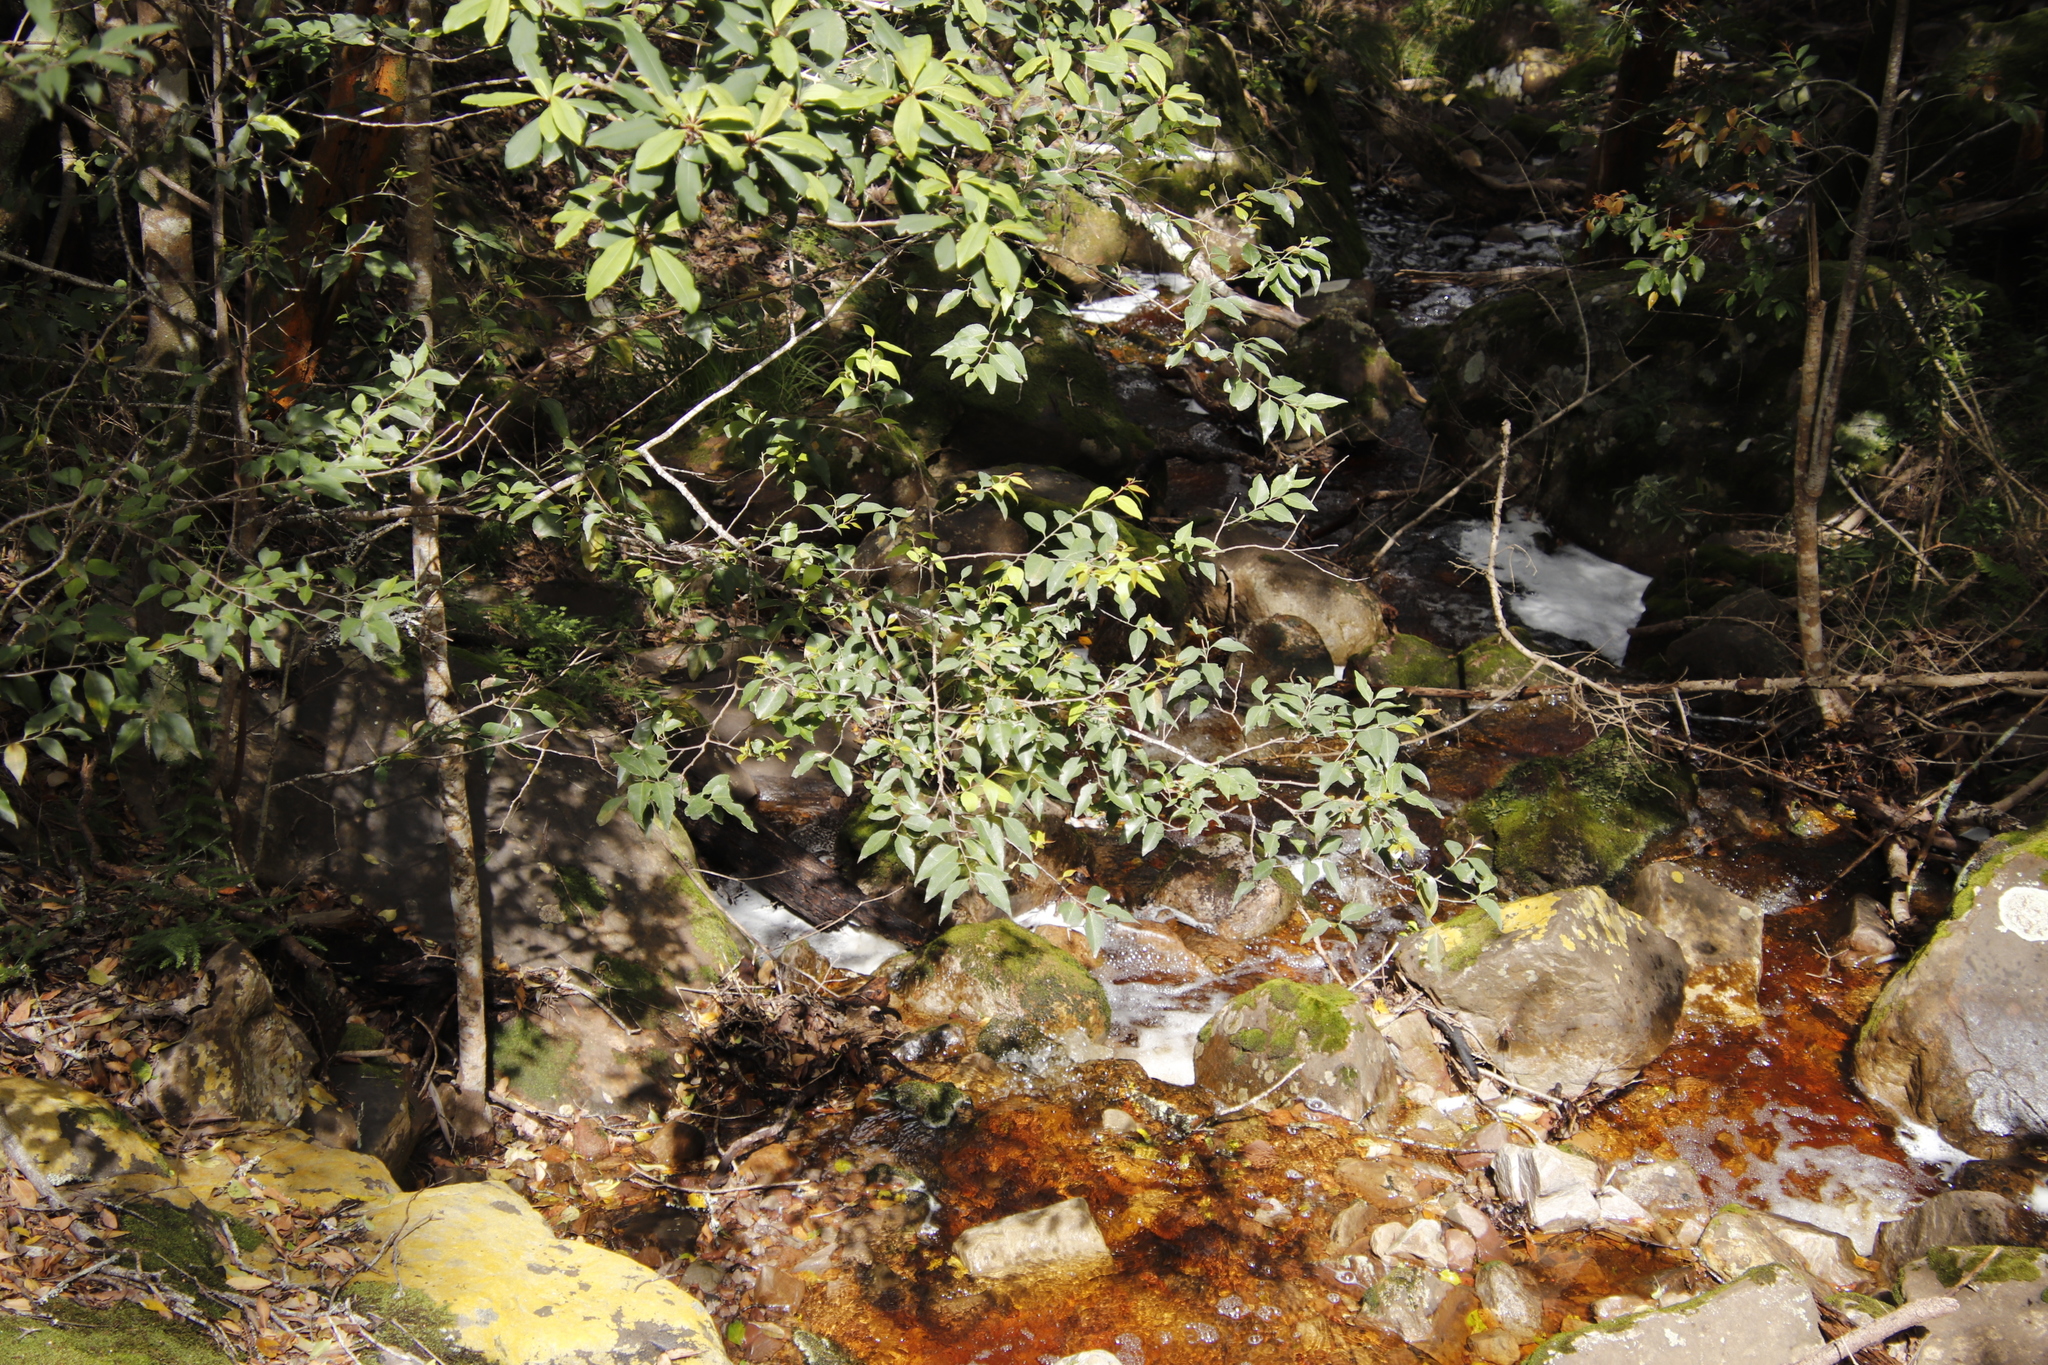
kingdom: Plantae
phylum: Tracheophyta
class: Magnoliopsida
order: Celastrales
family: Celastraceae
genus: Gymnosporia
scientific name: Gymnosporia acuminata
